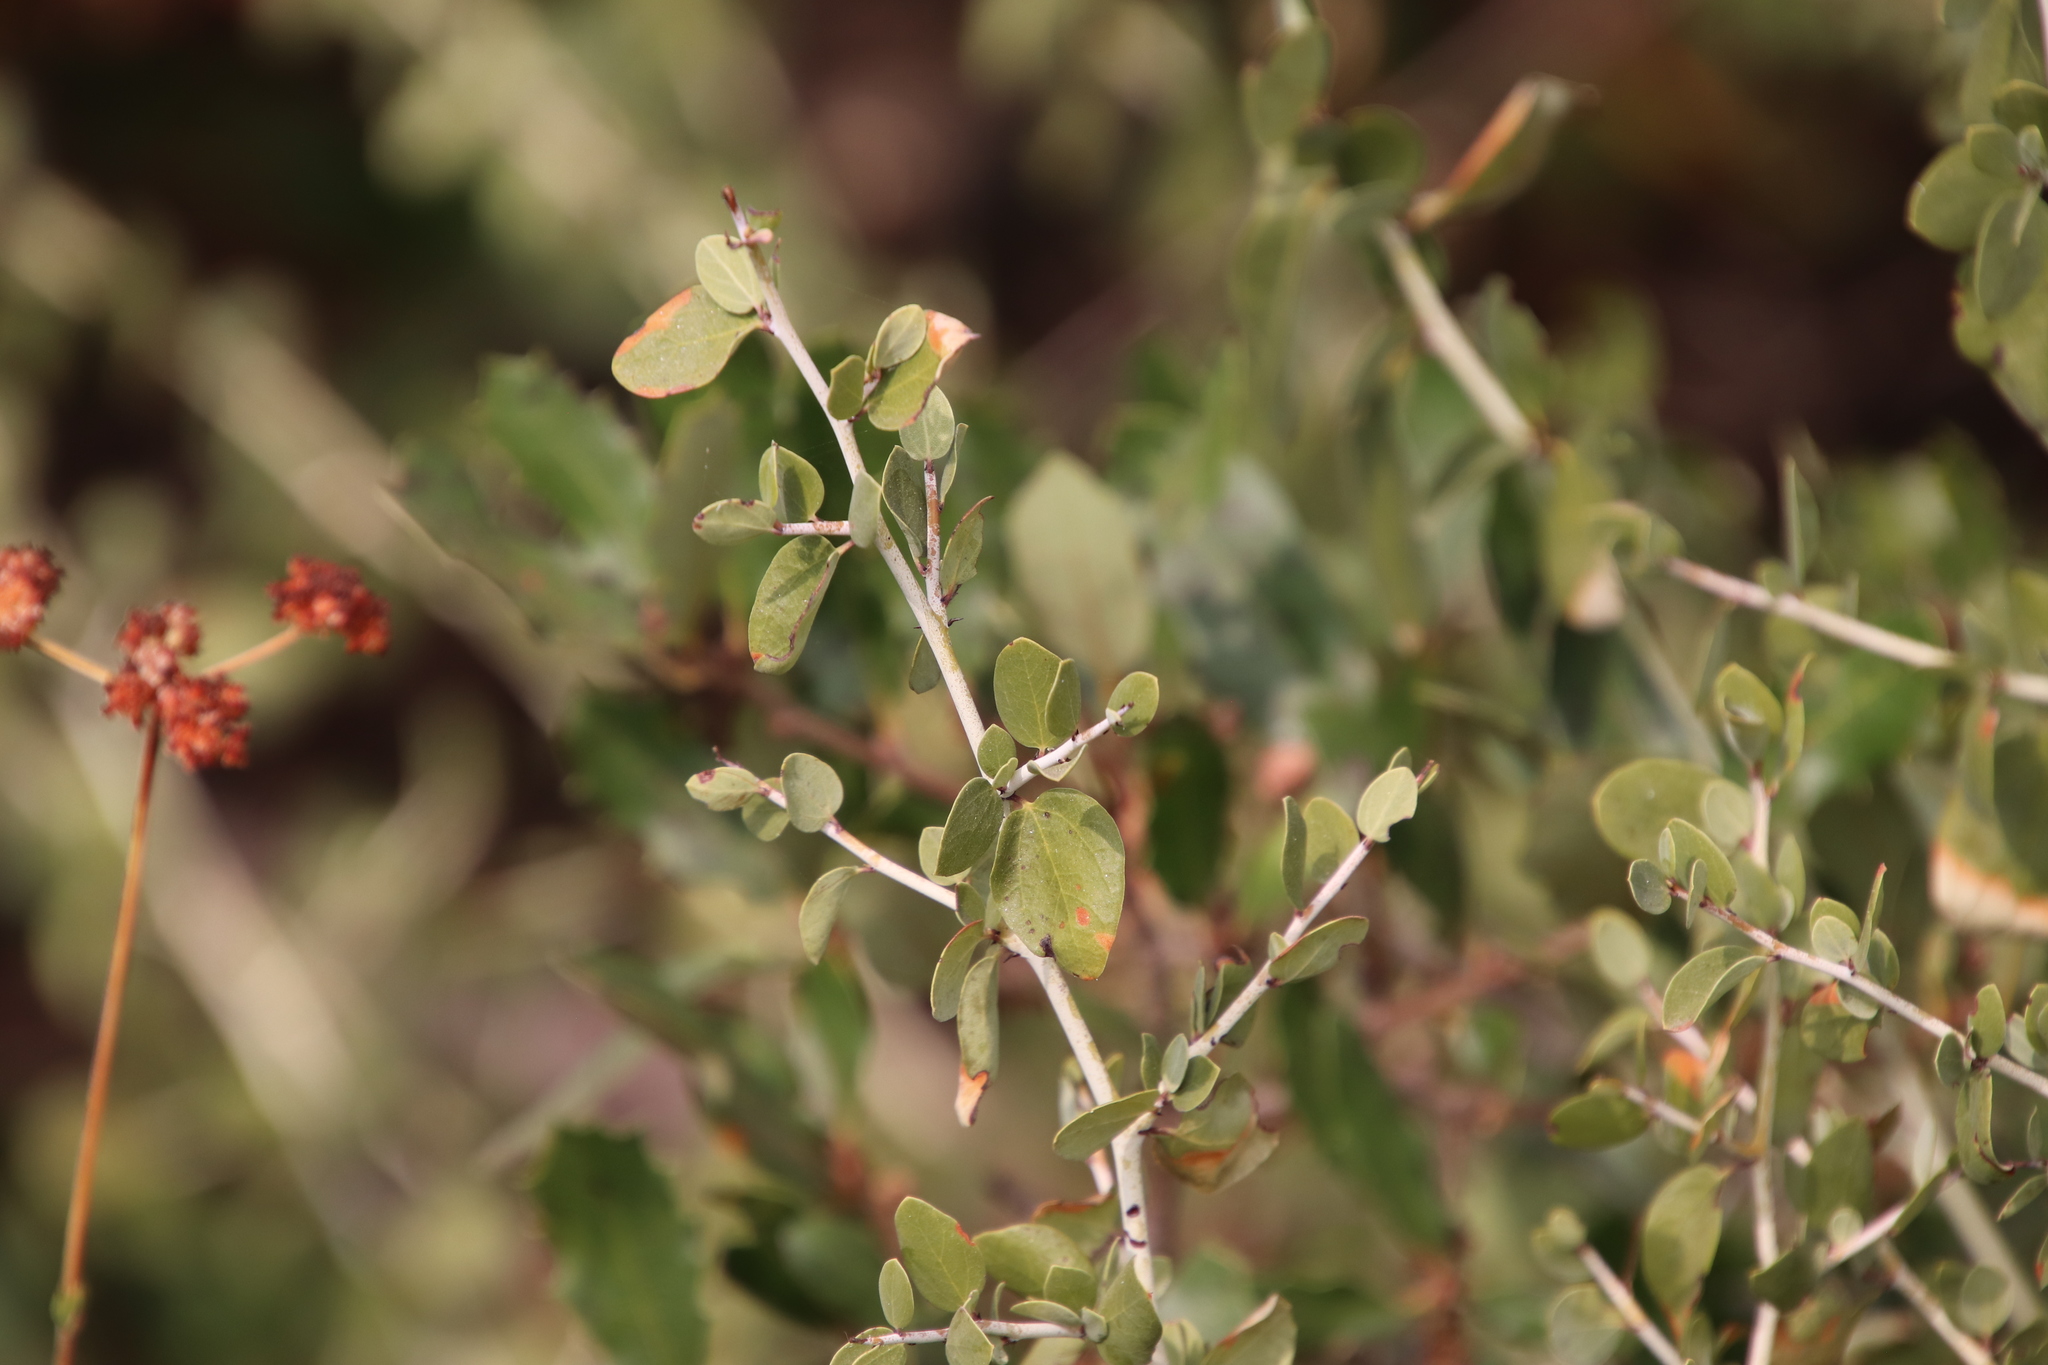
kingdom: Plantae
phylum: Tracheophyta
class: Magnoliopsida
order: Rosales
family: Rhamnaceae
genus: Ceanothus
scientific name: Ceanothus leucodermis
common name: Chaparral whitethorn
